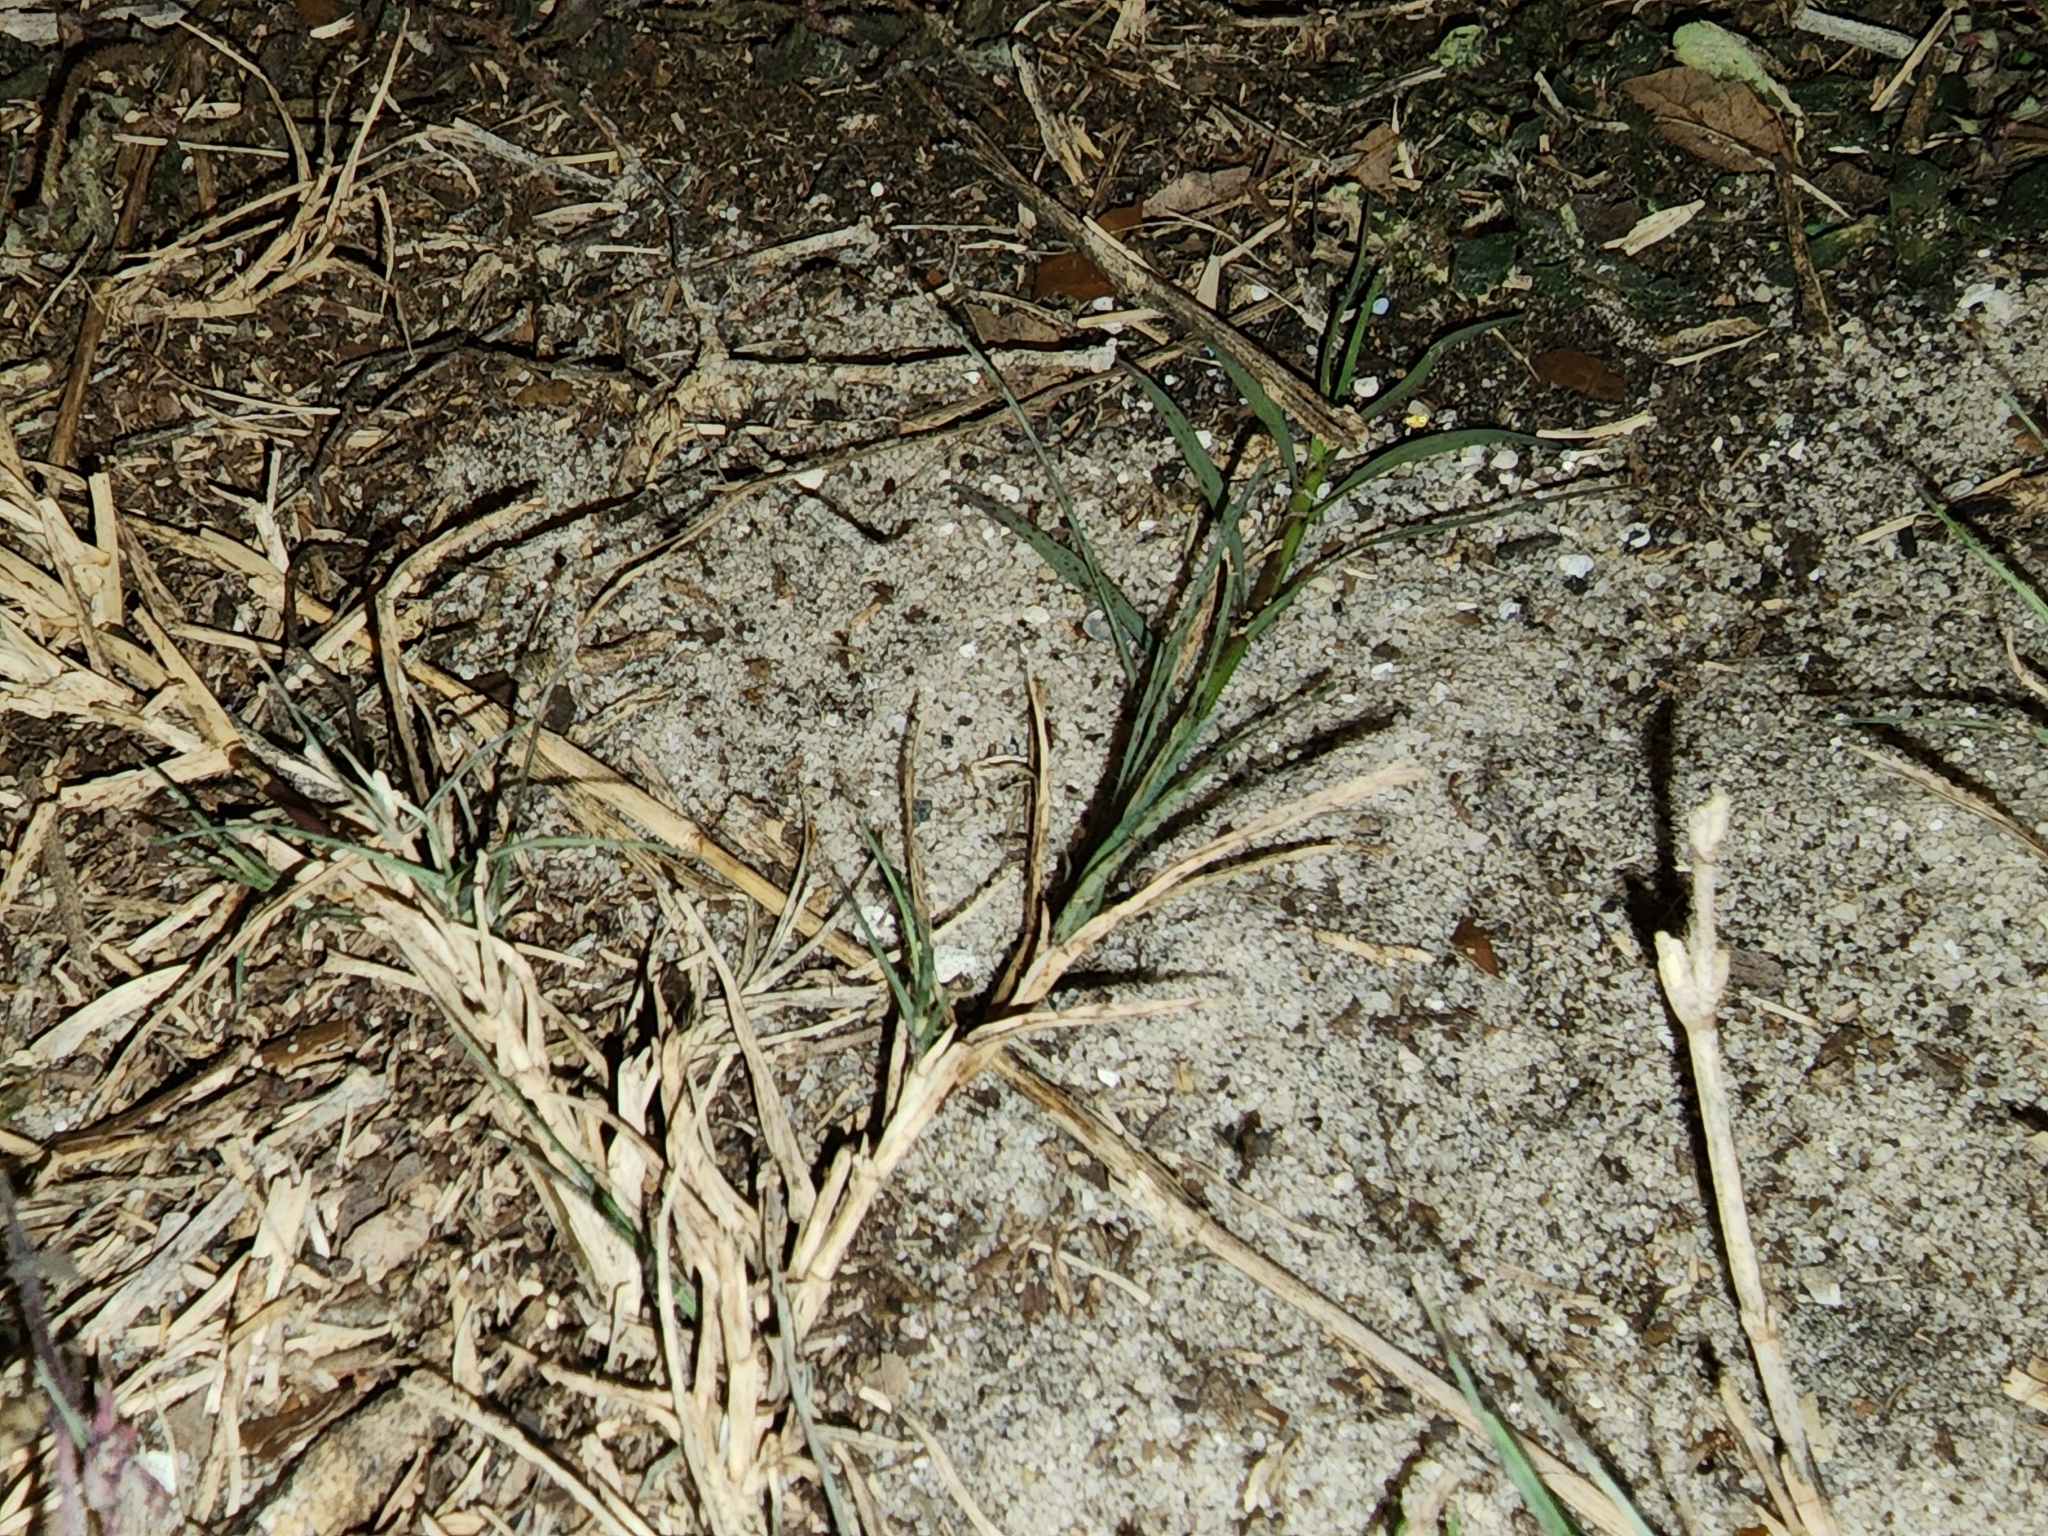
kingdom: Plantae
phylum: Tracheophyta
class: Liliopsida
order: Poales
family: Poaceae
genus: Cynodon
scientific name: Cynodon dactylon
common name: Bermuda grass
